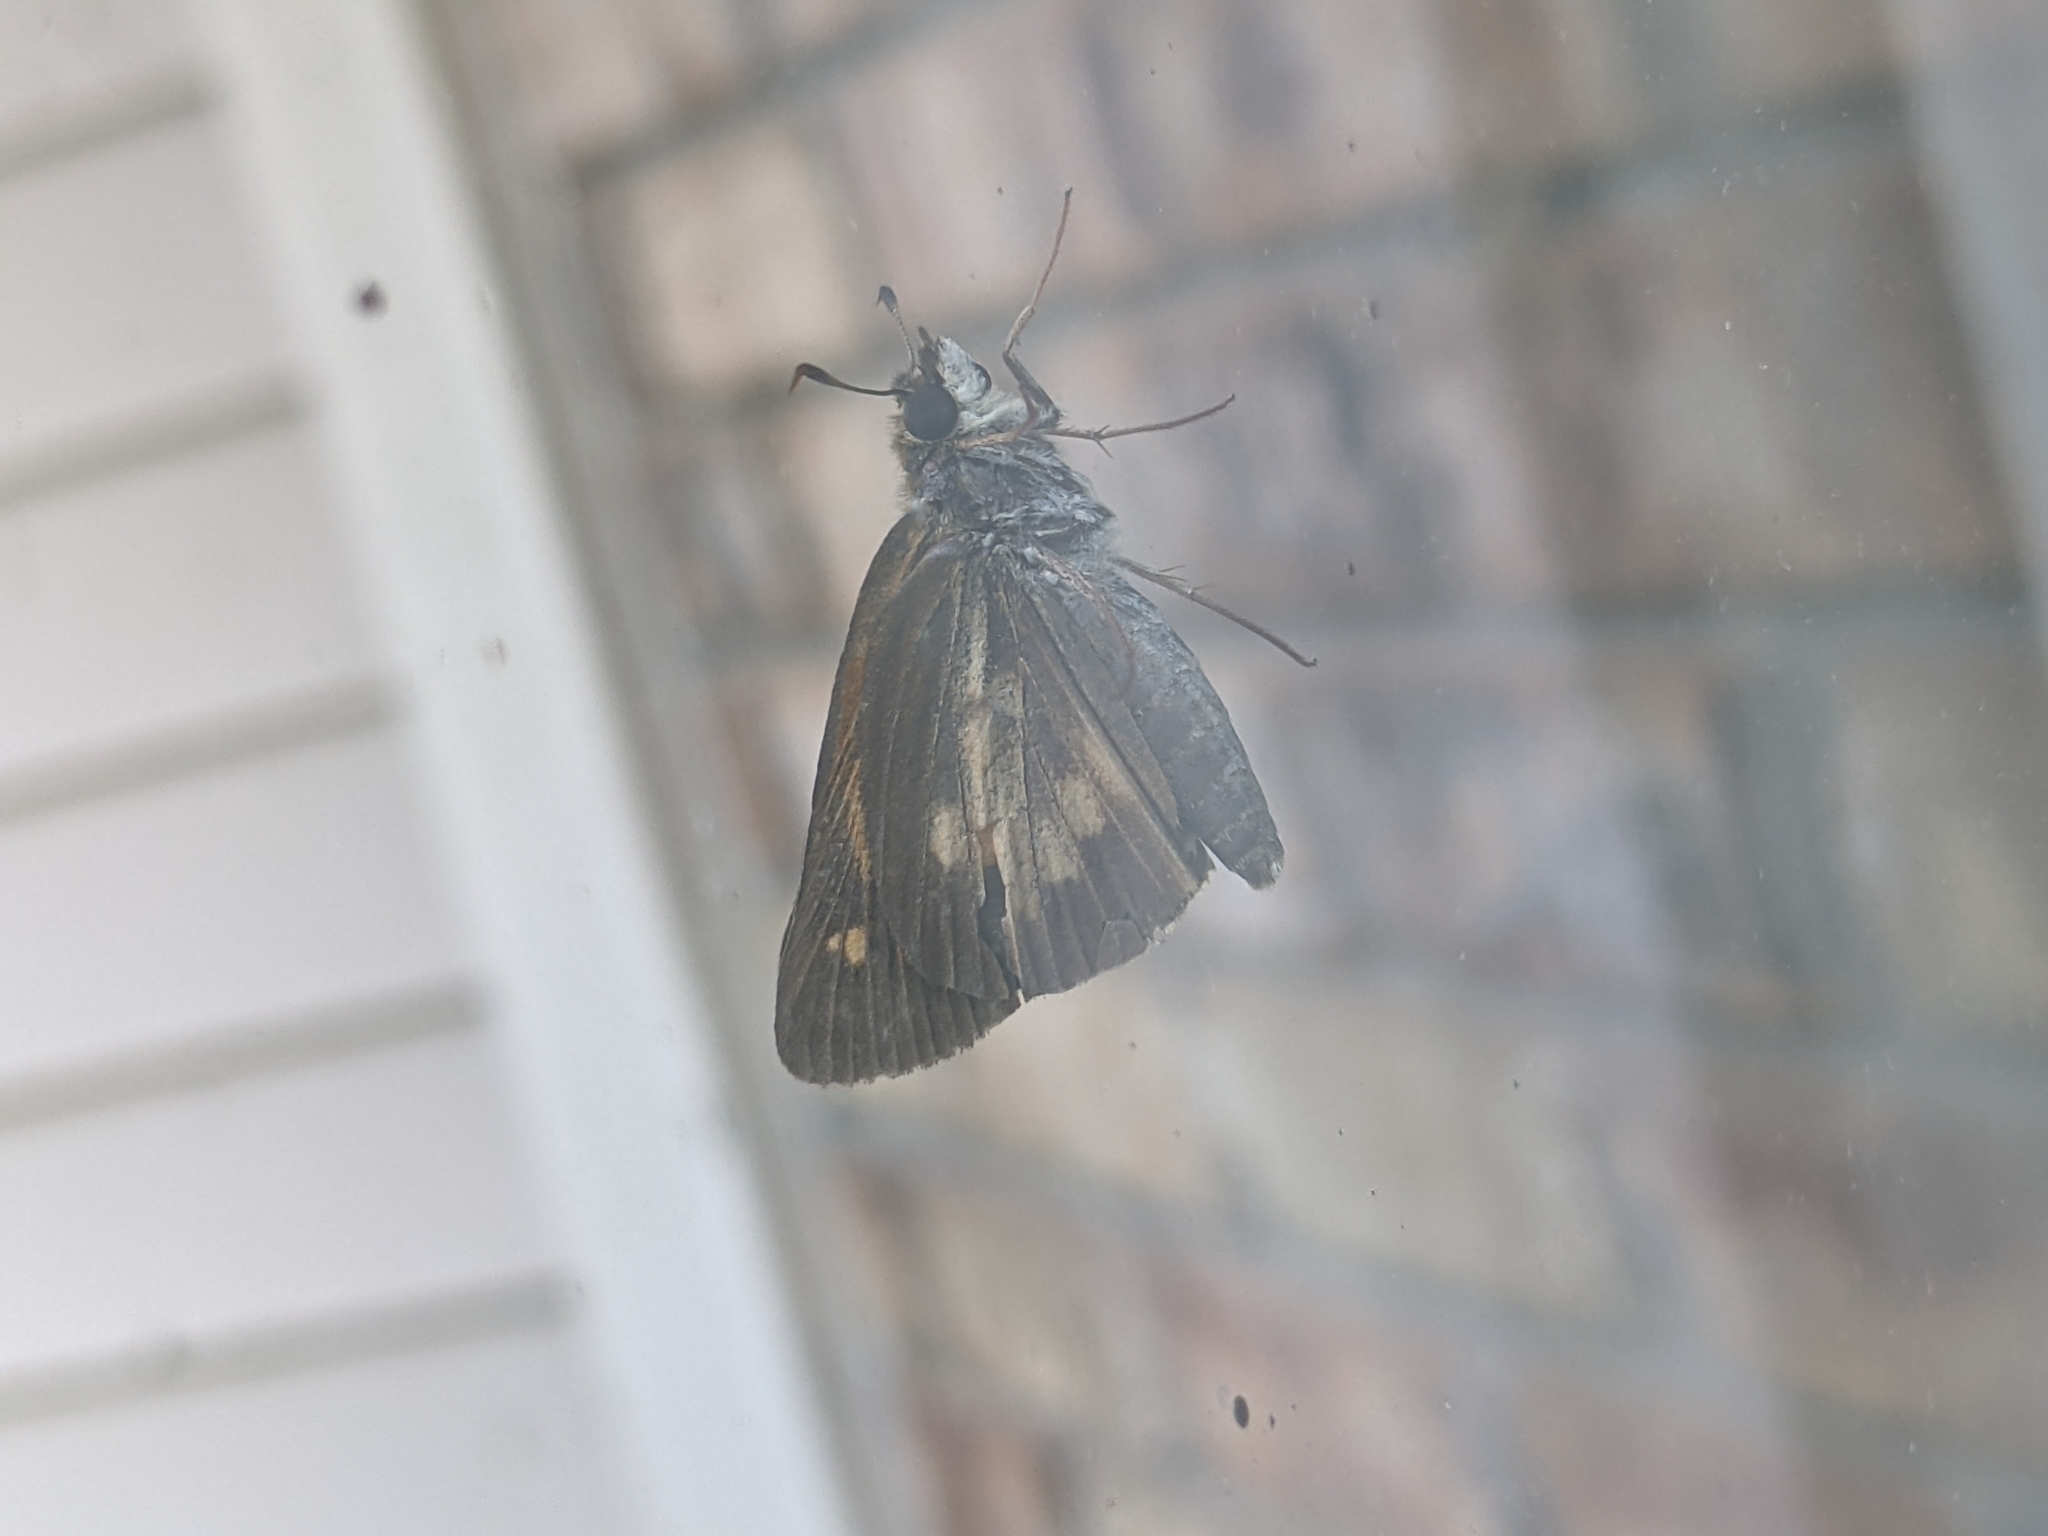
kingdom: Animalia
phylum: Arthropoda
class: Insecta
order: Lepidoptera
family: Hesperiidae
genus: Poanes
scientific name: Poanes viator
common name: Broad-winged skipper
